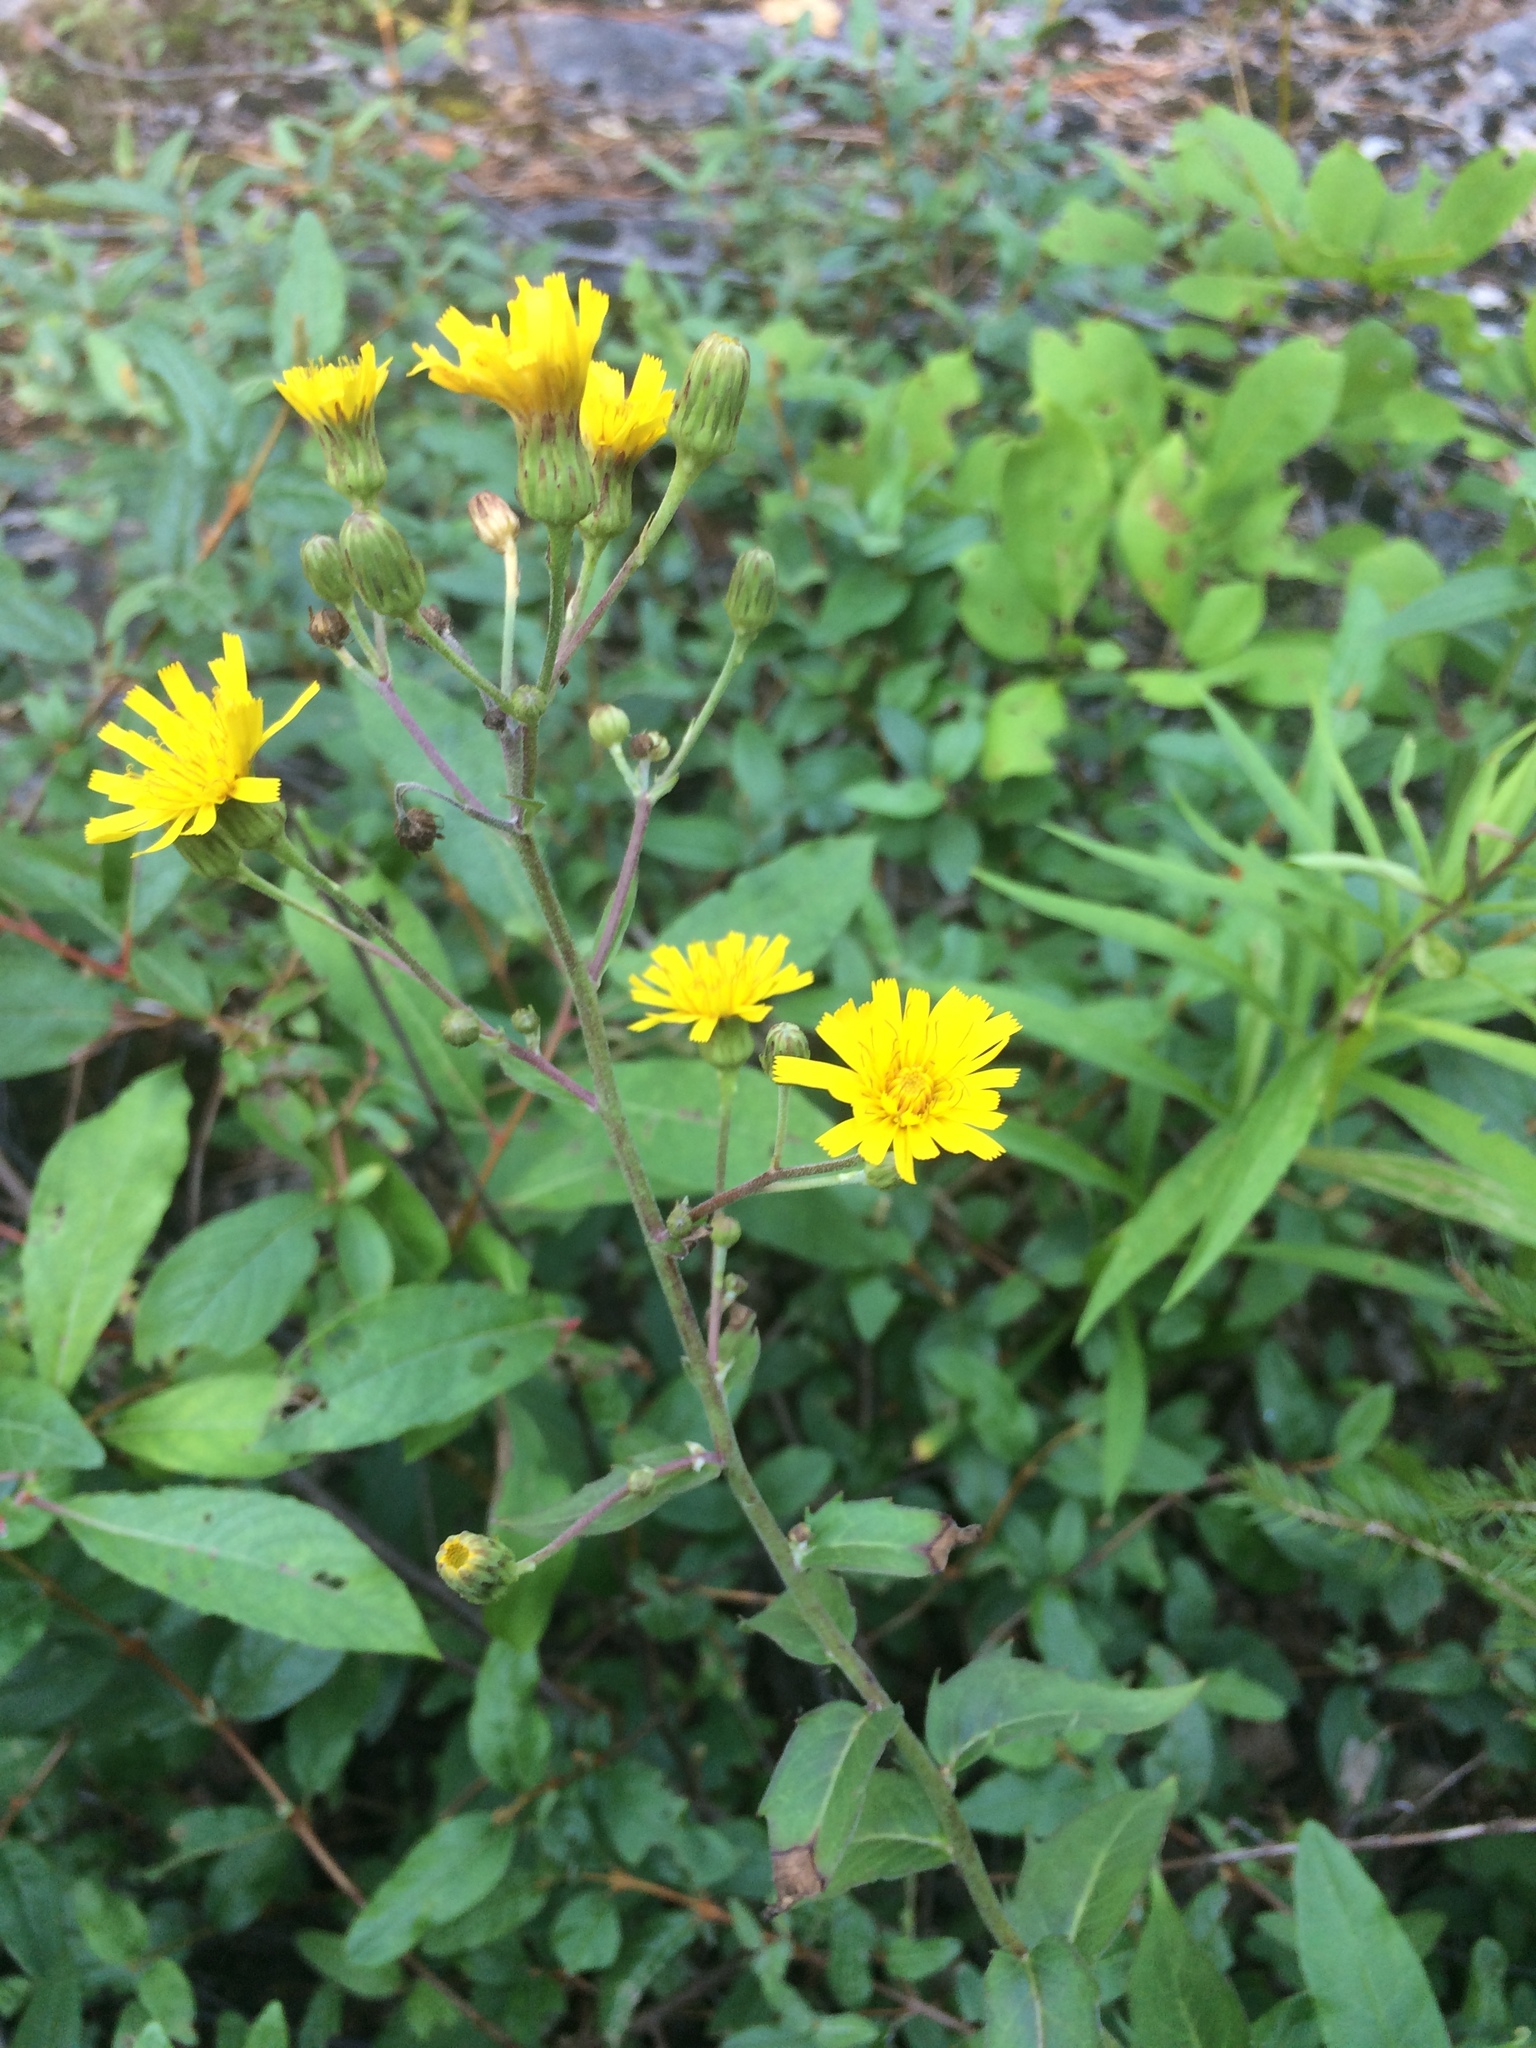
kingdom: Plantae
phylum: Tracheophyta
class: Magnoliopsida
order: Asterales
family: Asteraceae
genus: Hieracium
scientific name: Hieracium umbellatum
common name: Northern hawkweed
